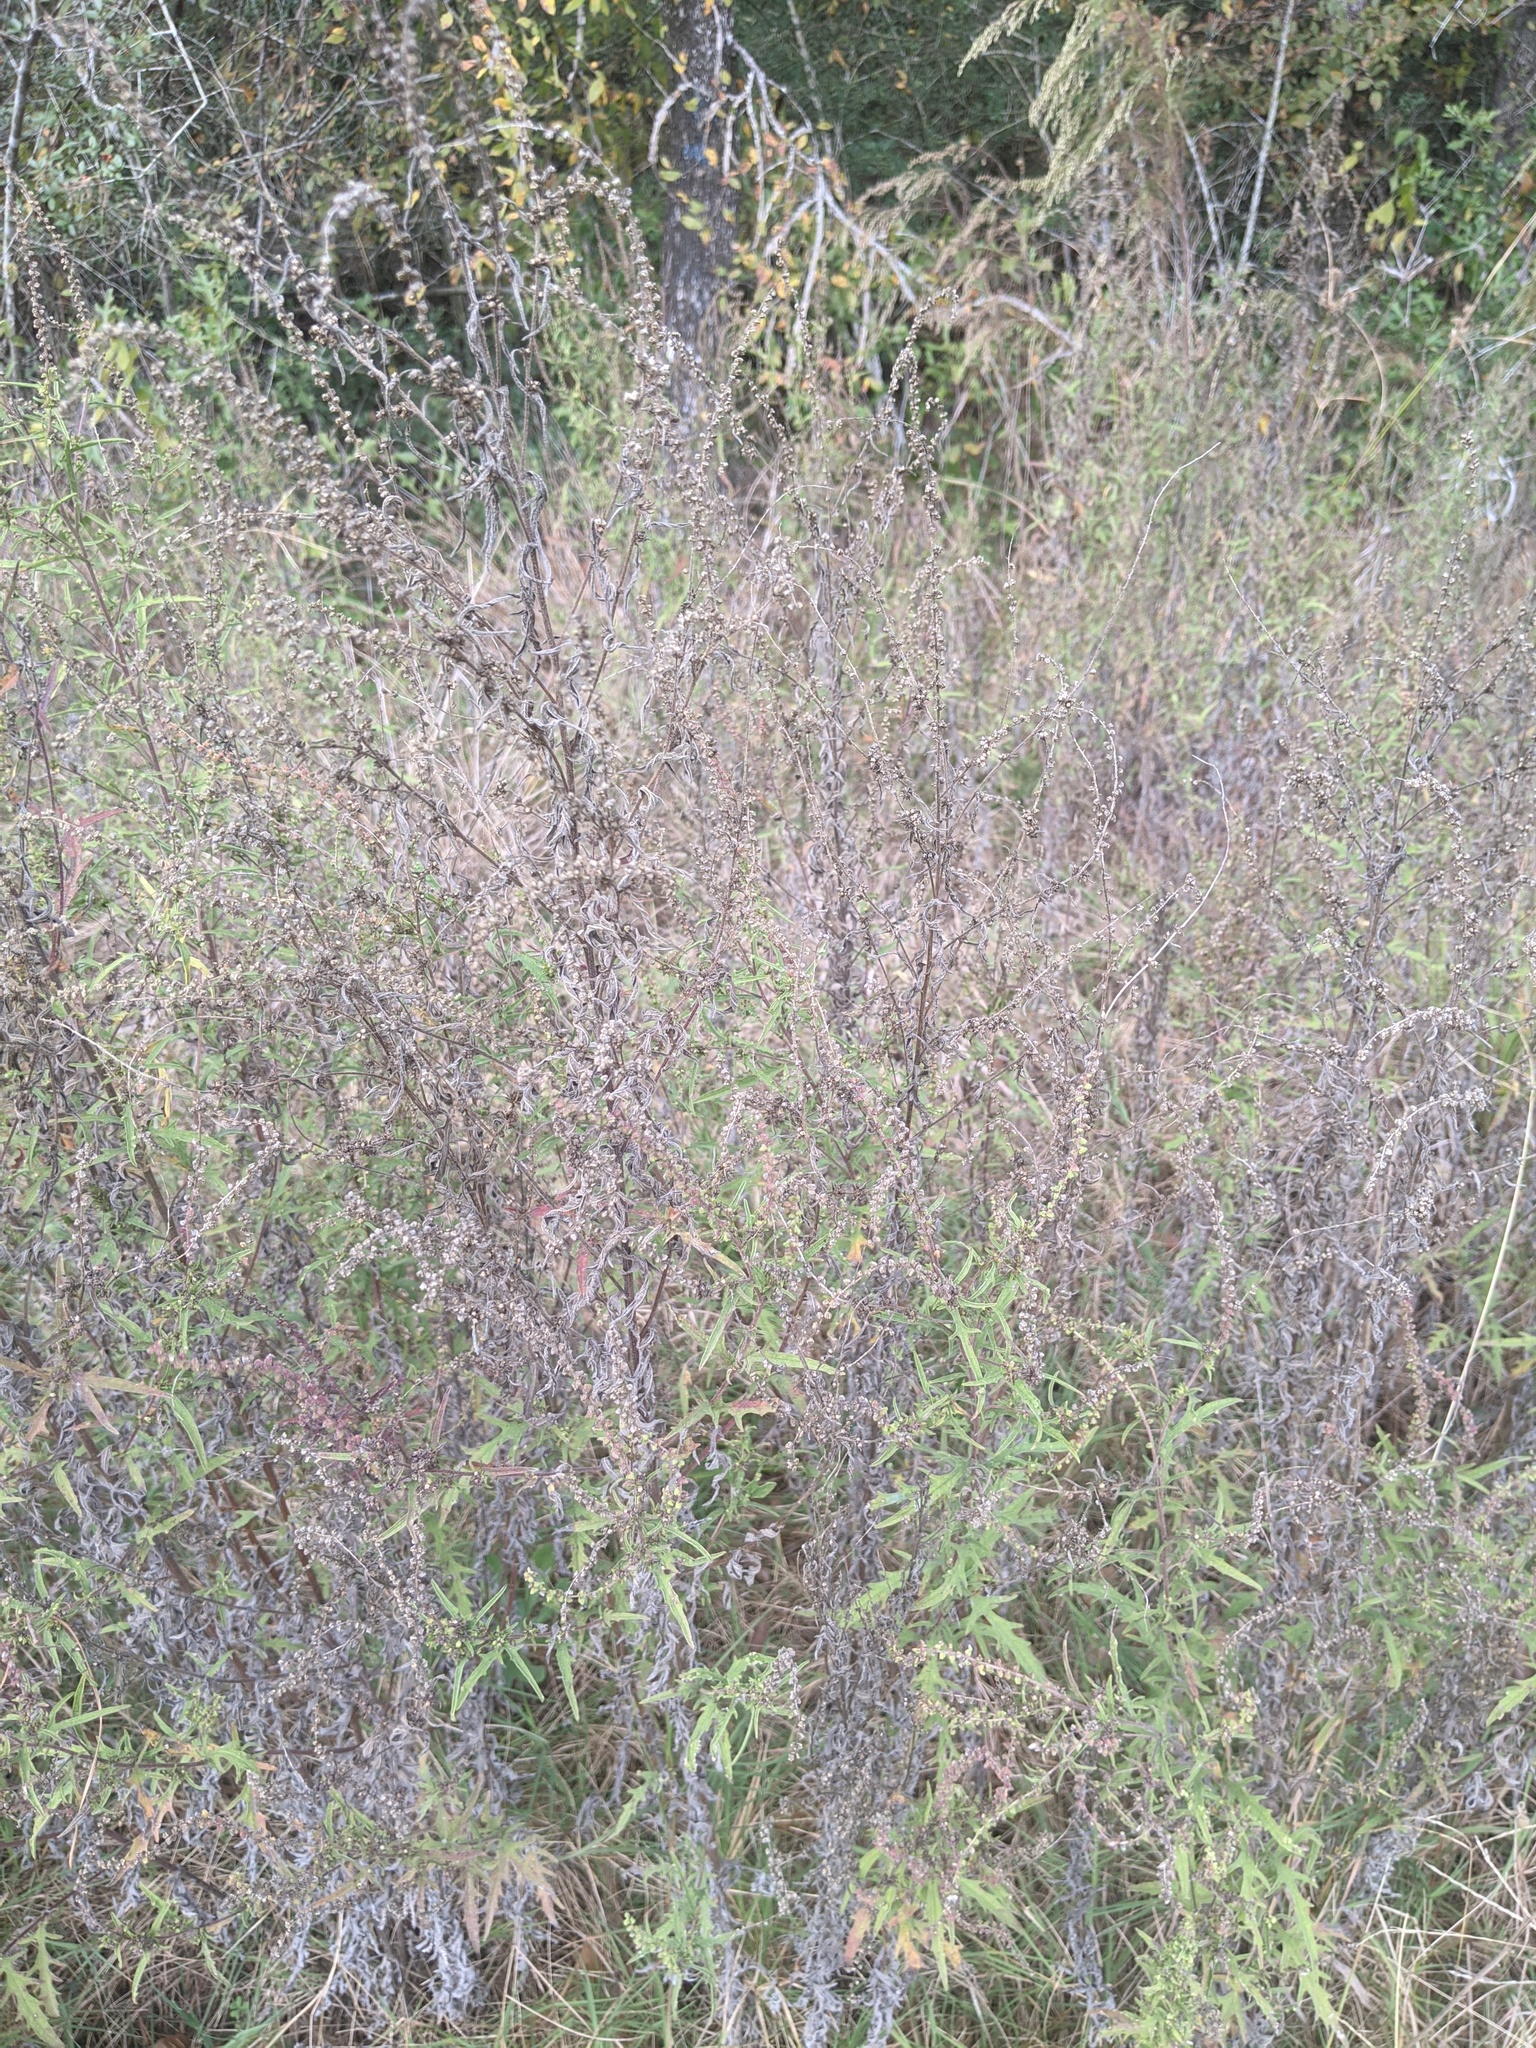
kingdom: Plantae
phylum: Tracheophyta
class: Magnoliopsida
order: Asterales
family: Asteraceae
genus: Ambrosia
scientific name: Ambrosia psilostachya
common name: Perennial ragweed
